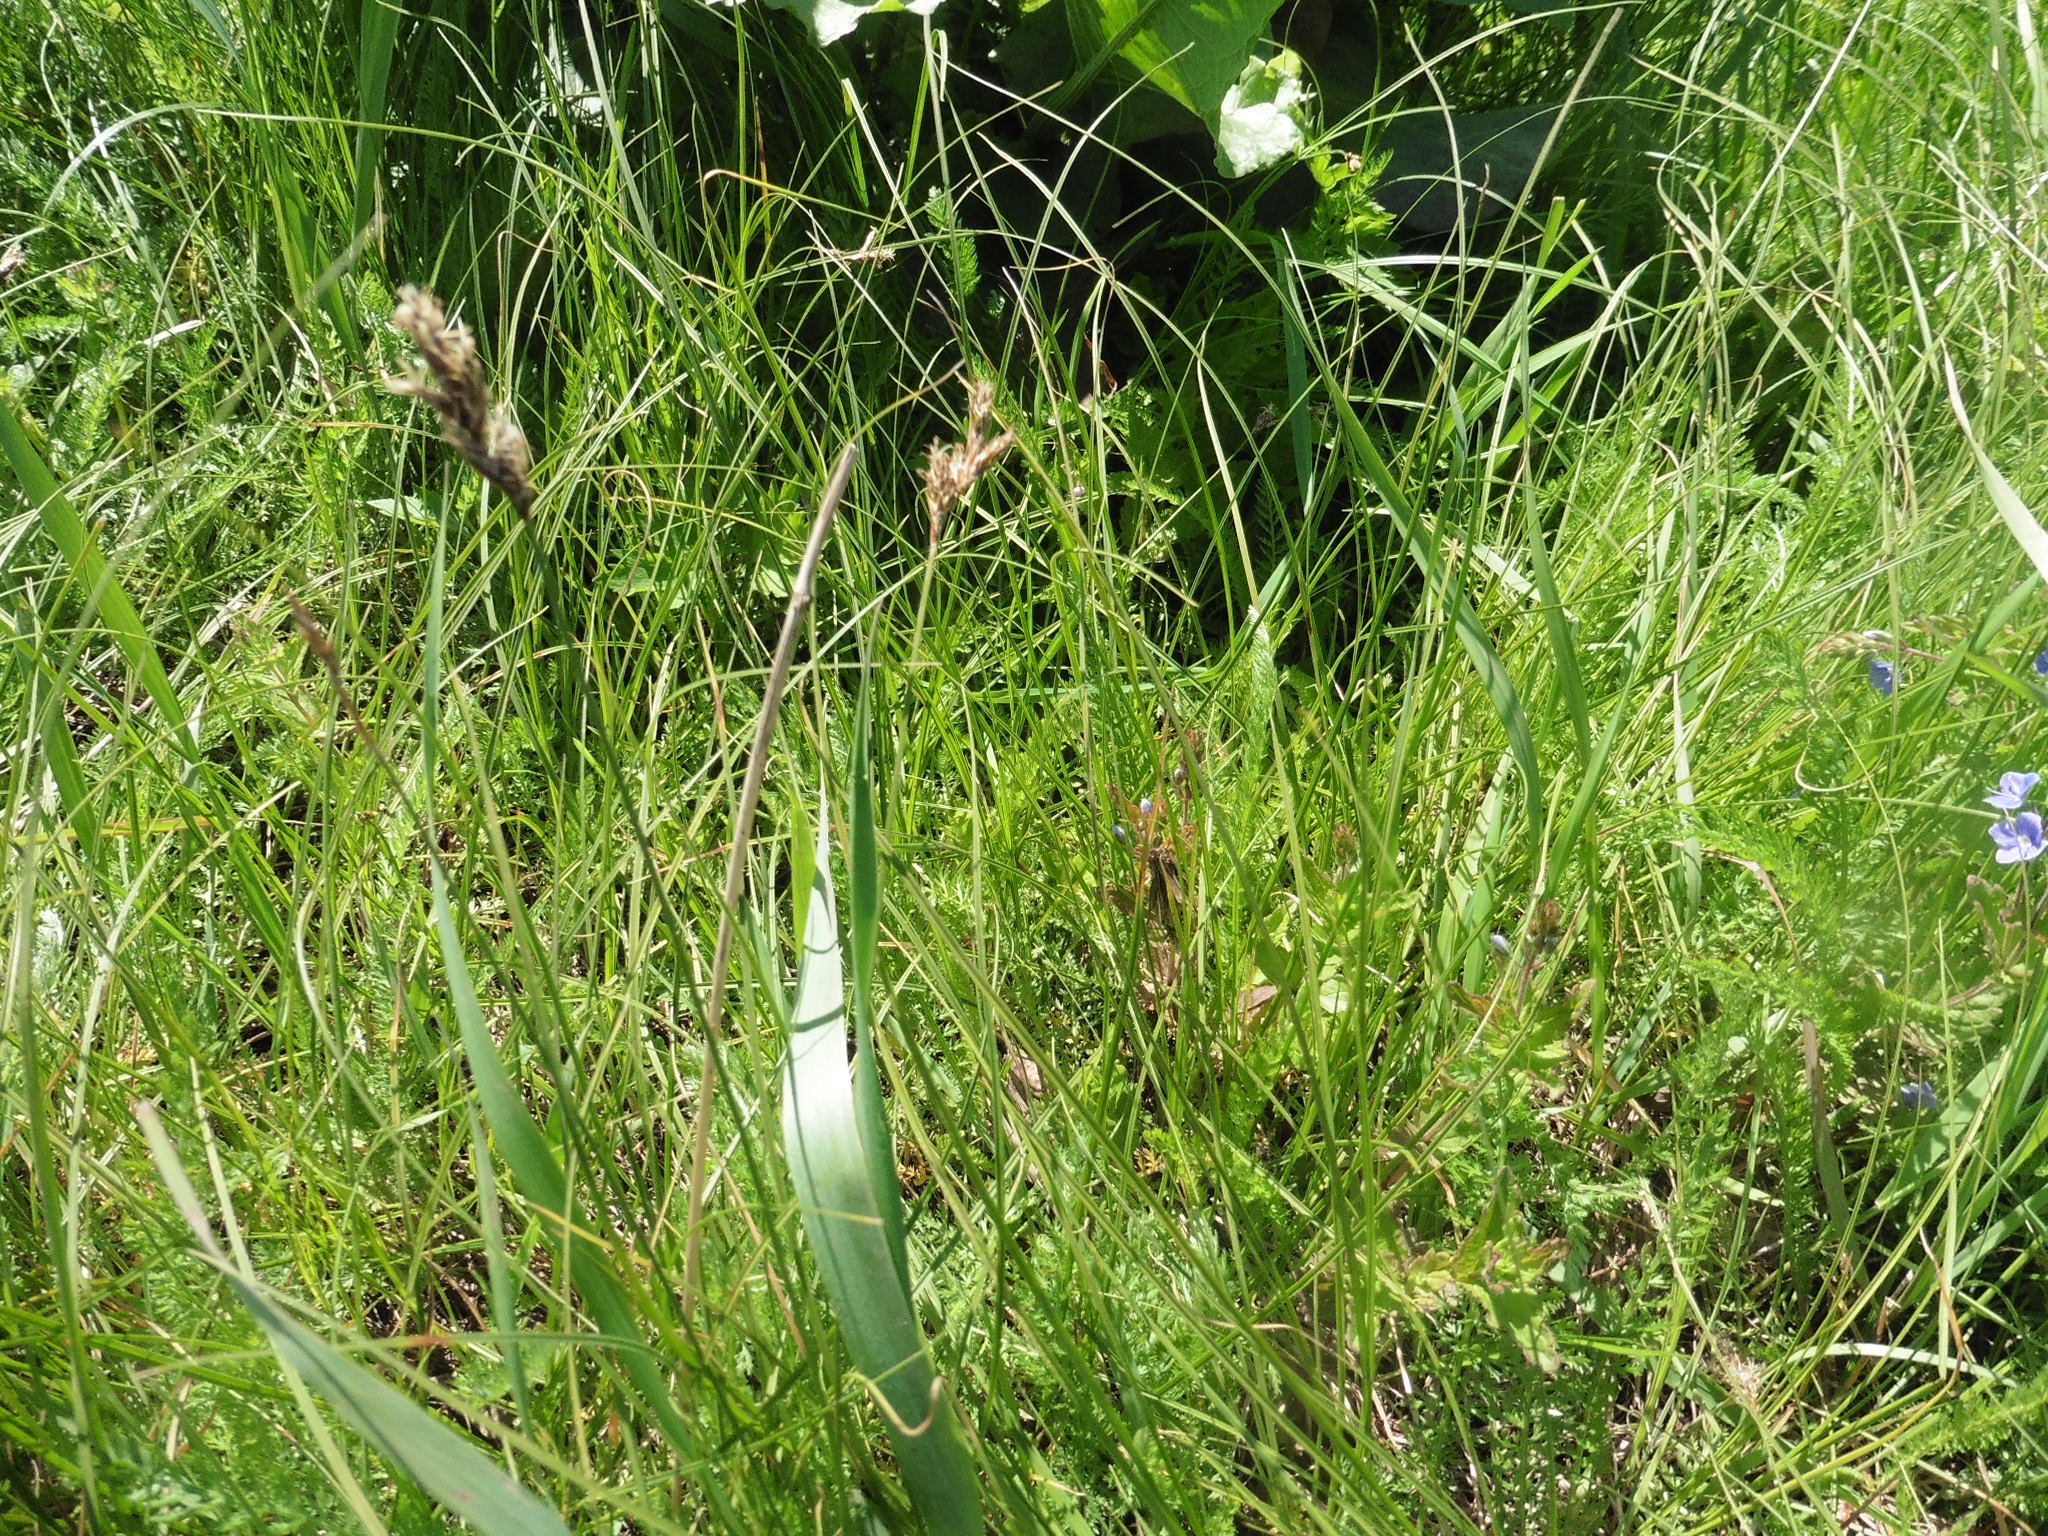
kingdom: Plantae
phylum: Tracheophyta
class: Liliopsida
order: Poales
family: Cyperaceae
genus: Carex
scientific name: Carex praecox
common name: Early sedge
